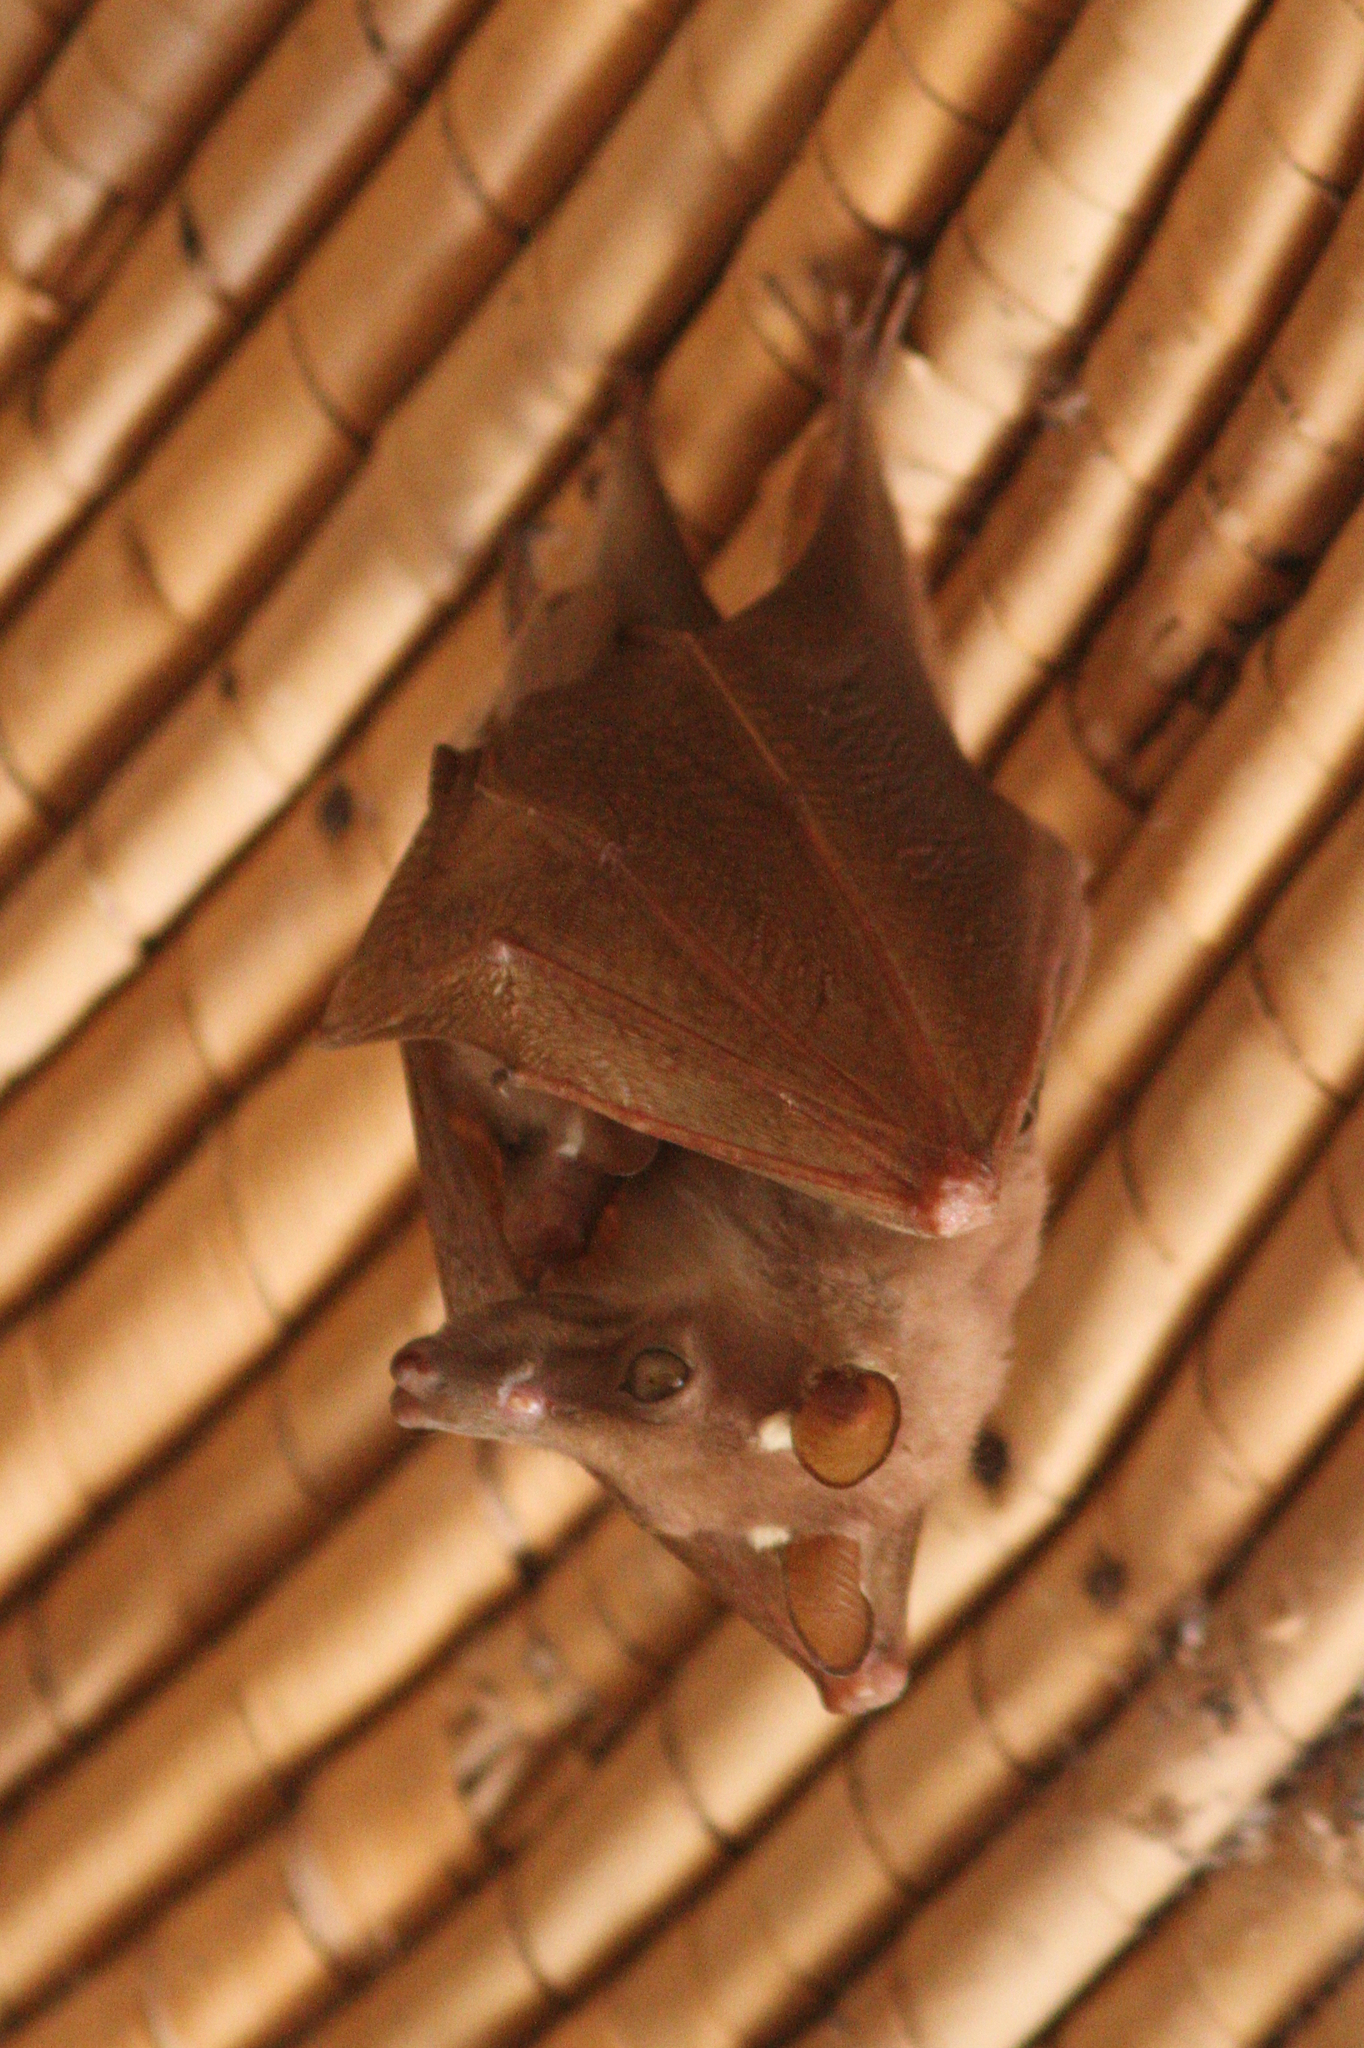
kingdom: Animalia
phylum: Chordata
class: Mammalia
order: Chiroptera
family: Pteropodidae
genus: Epomophorus
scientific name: Epomophorus gambianus
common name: Gambian epauletted fruit bat
